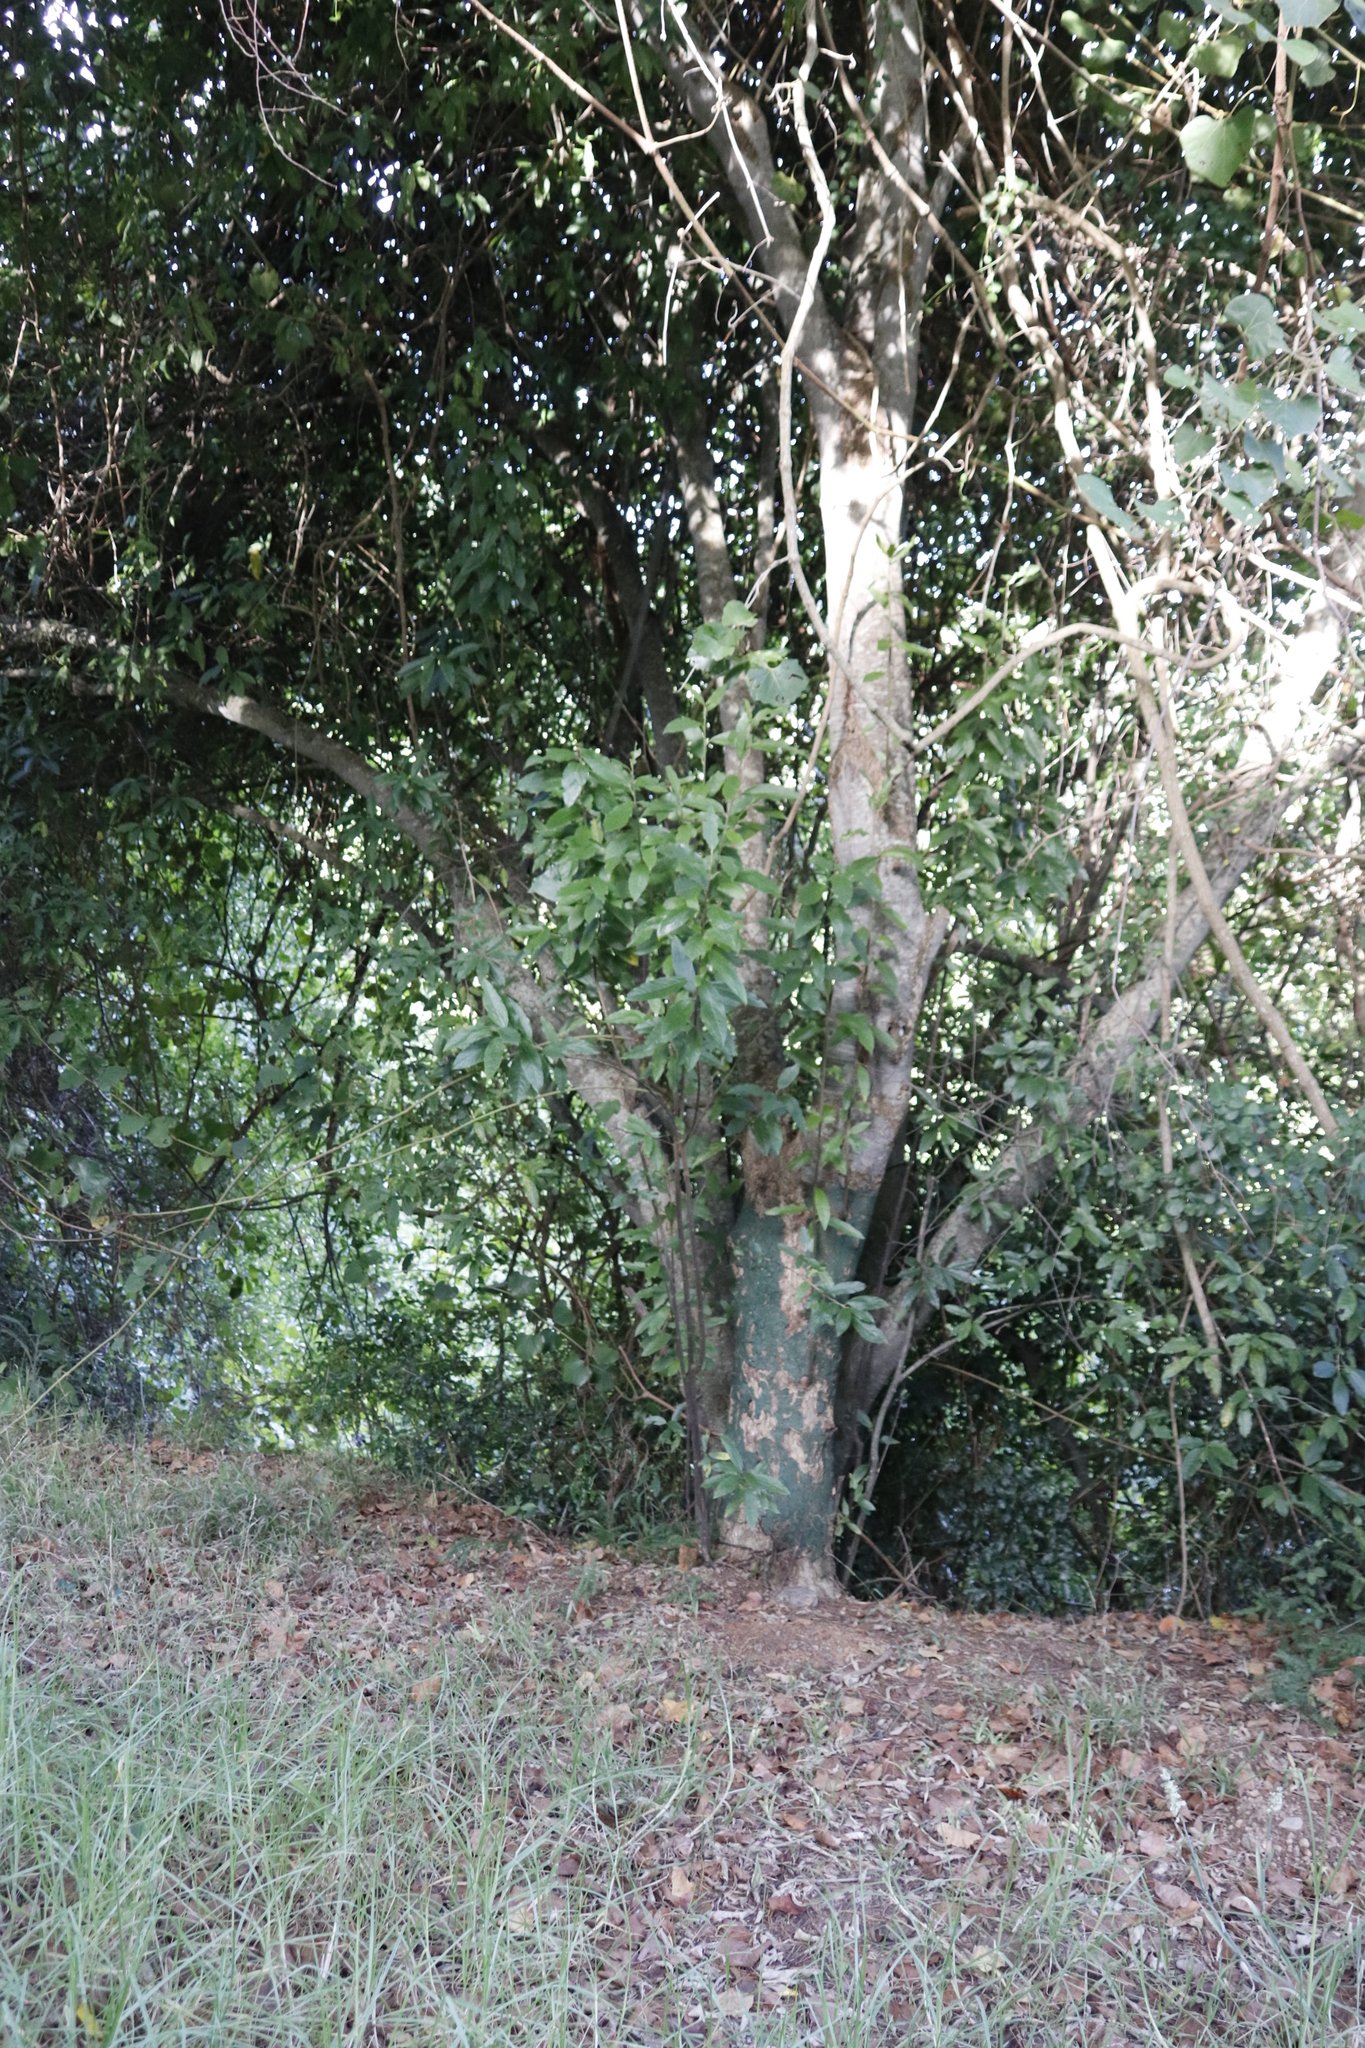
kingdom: Plantae
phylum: Tracheophyta
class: Magnoliopsida
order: Malpighiales
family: Achariaceae
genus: Kiggelaria
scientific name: Kiggelaria africana
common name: Wild peach
